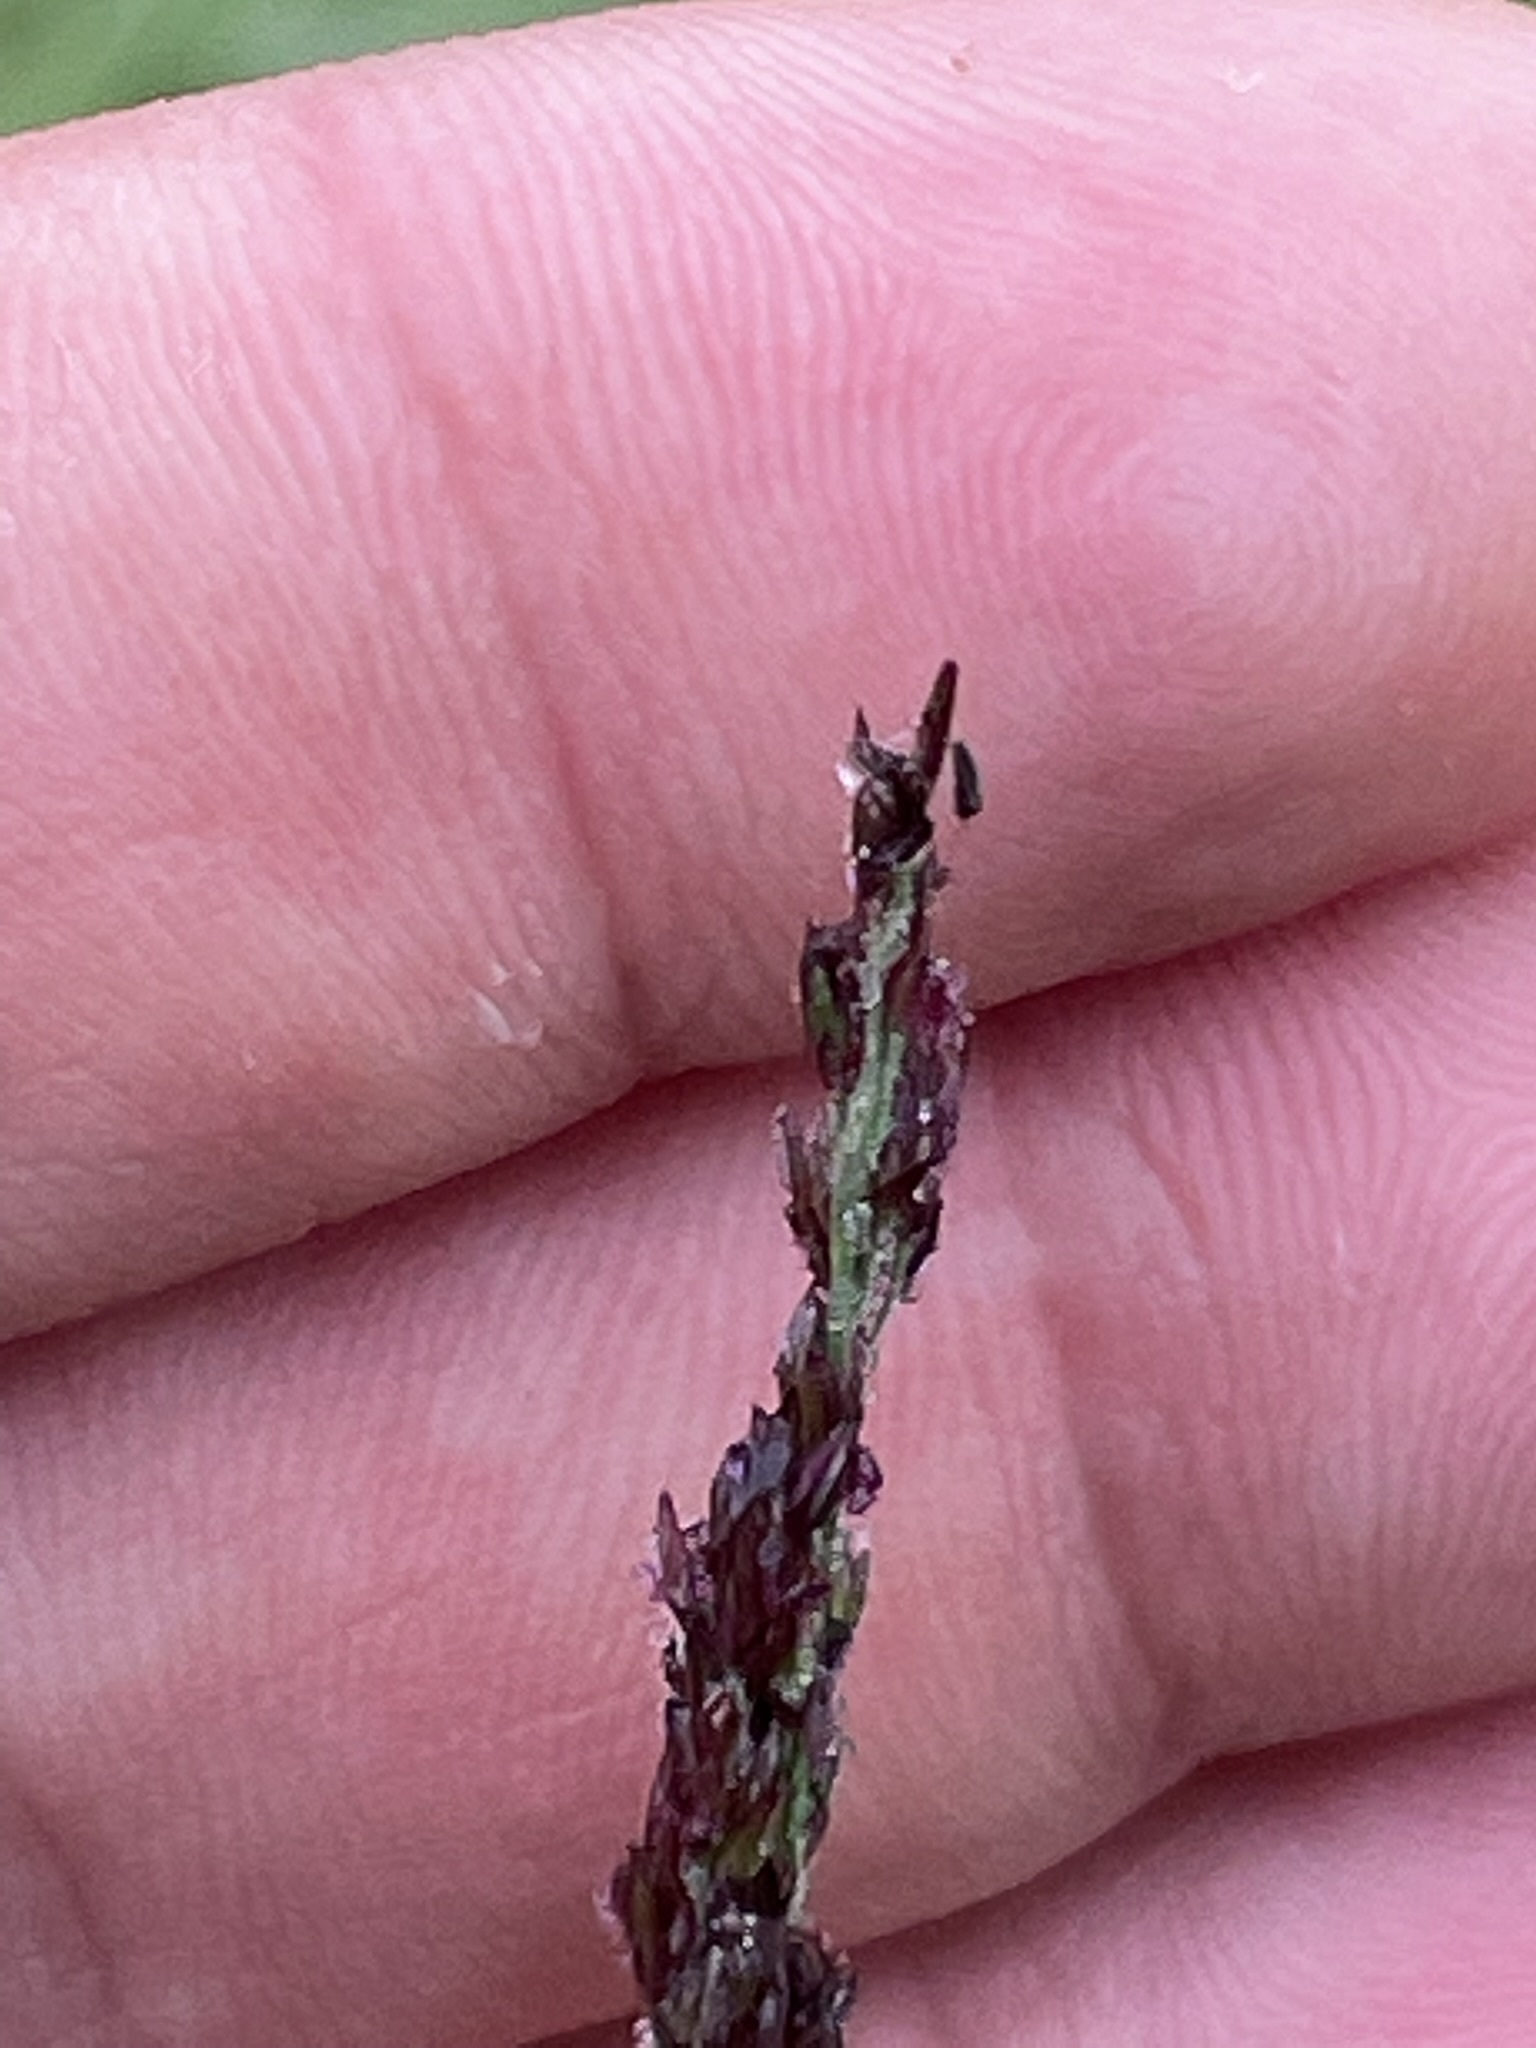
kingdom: Plantae
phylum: Tracheophyta
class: Liliopsida
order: Poales
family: Poaceae
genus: Molinia
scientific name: Molinia caerulea
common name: Purple moor-grass
